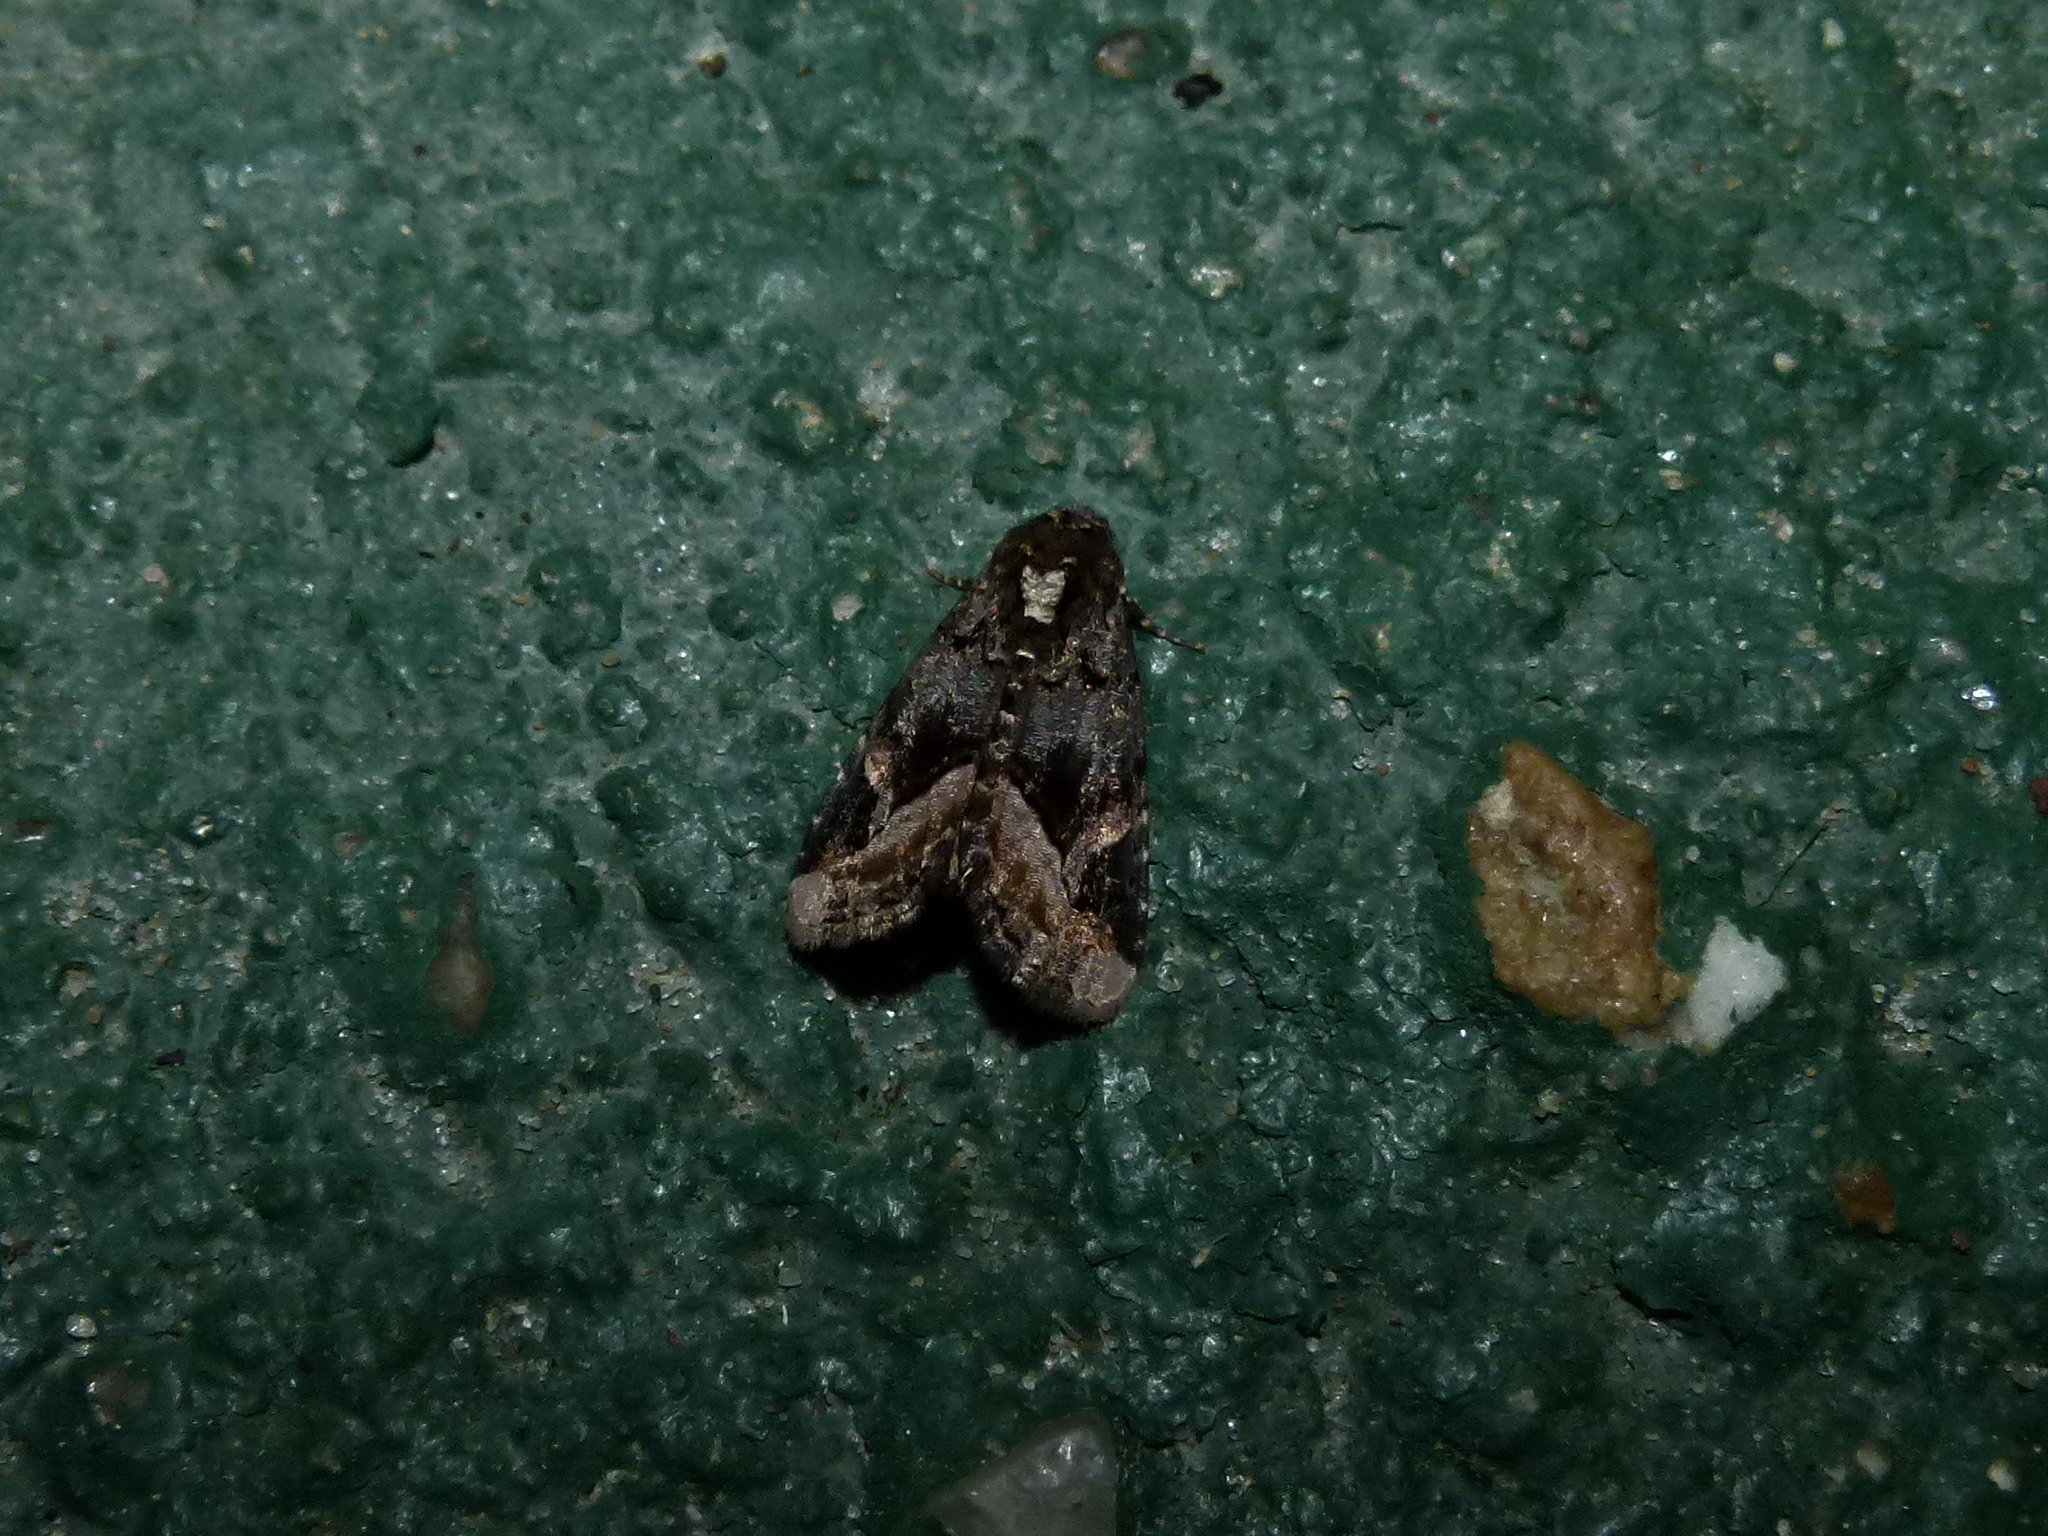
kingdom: Animalia
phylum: Arthropoda
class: Insecta
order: Lepidoptera
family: Noctuidae
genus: Homophoberia
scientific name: Homophoberia apicosa
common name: Black wedge-spot
